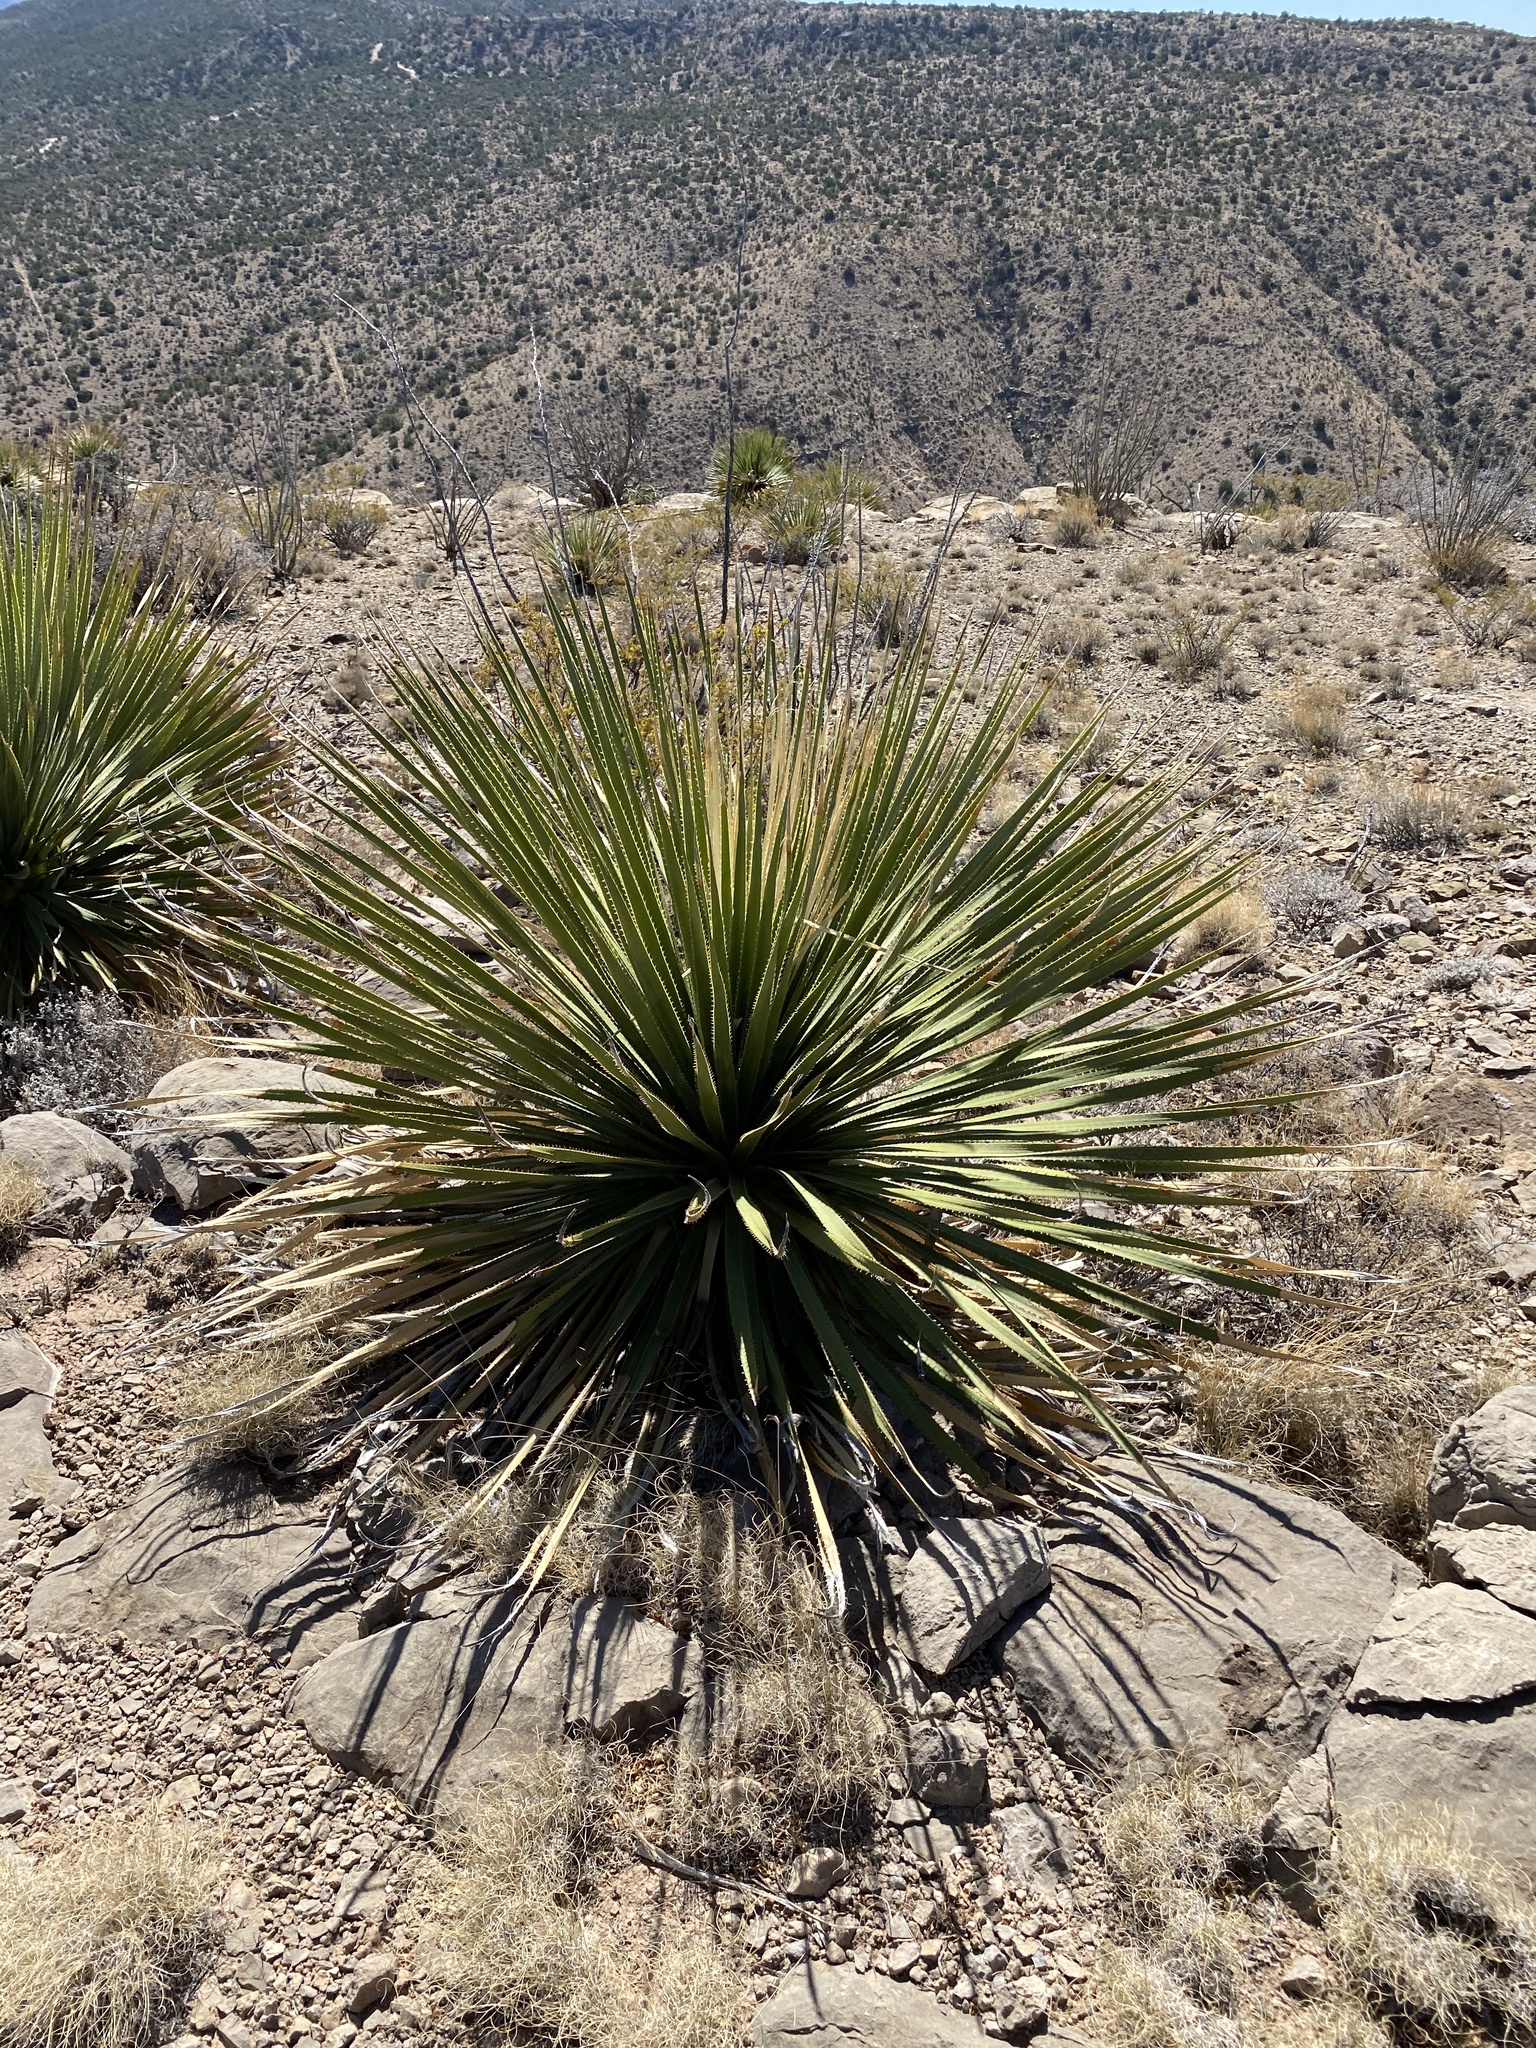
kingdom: Plantae
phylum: Tracheophyta
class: Liliopsida
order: Asparagales
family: Asparagaceae
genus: Dasylirion
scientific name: Dasylirion wheeleri
